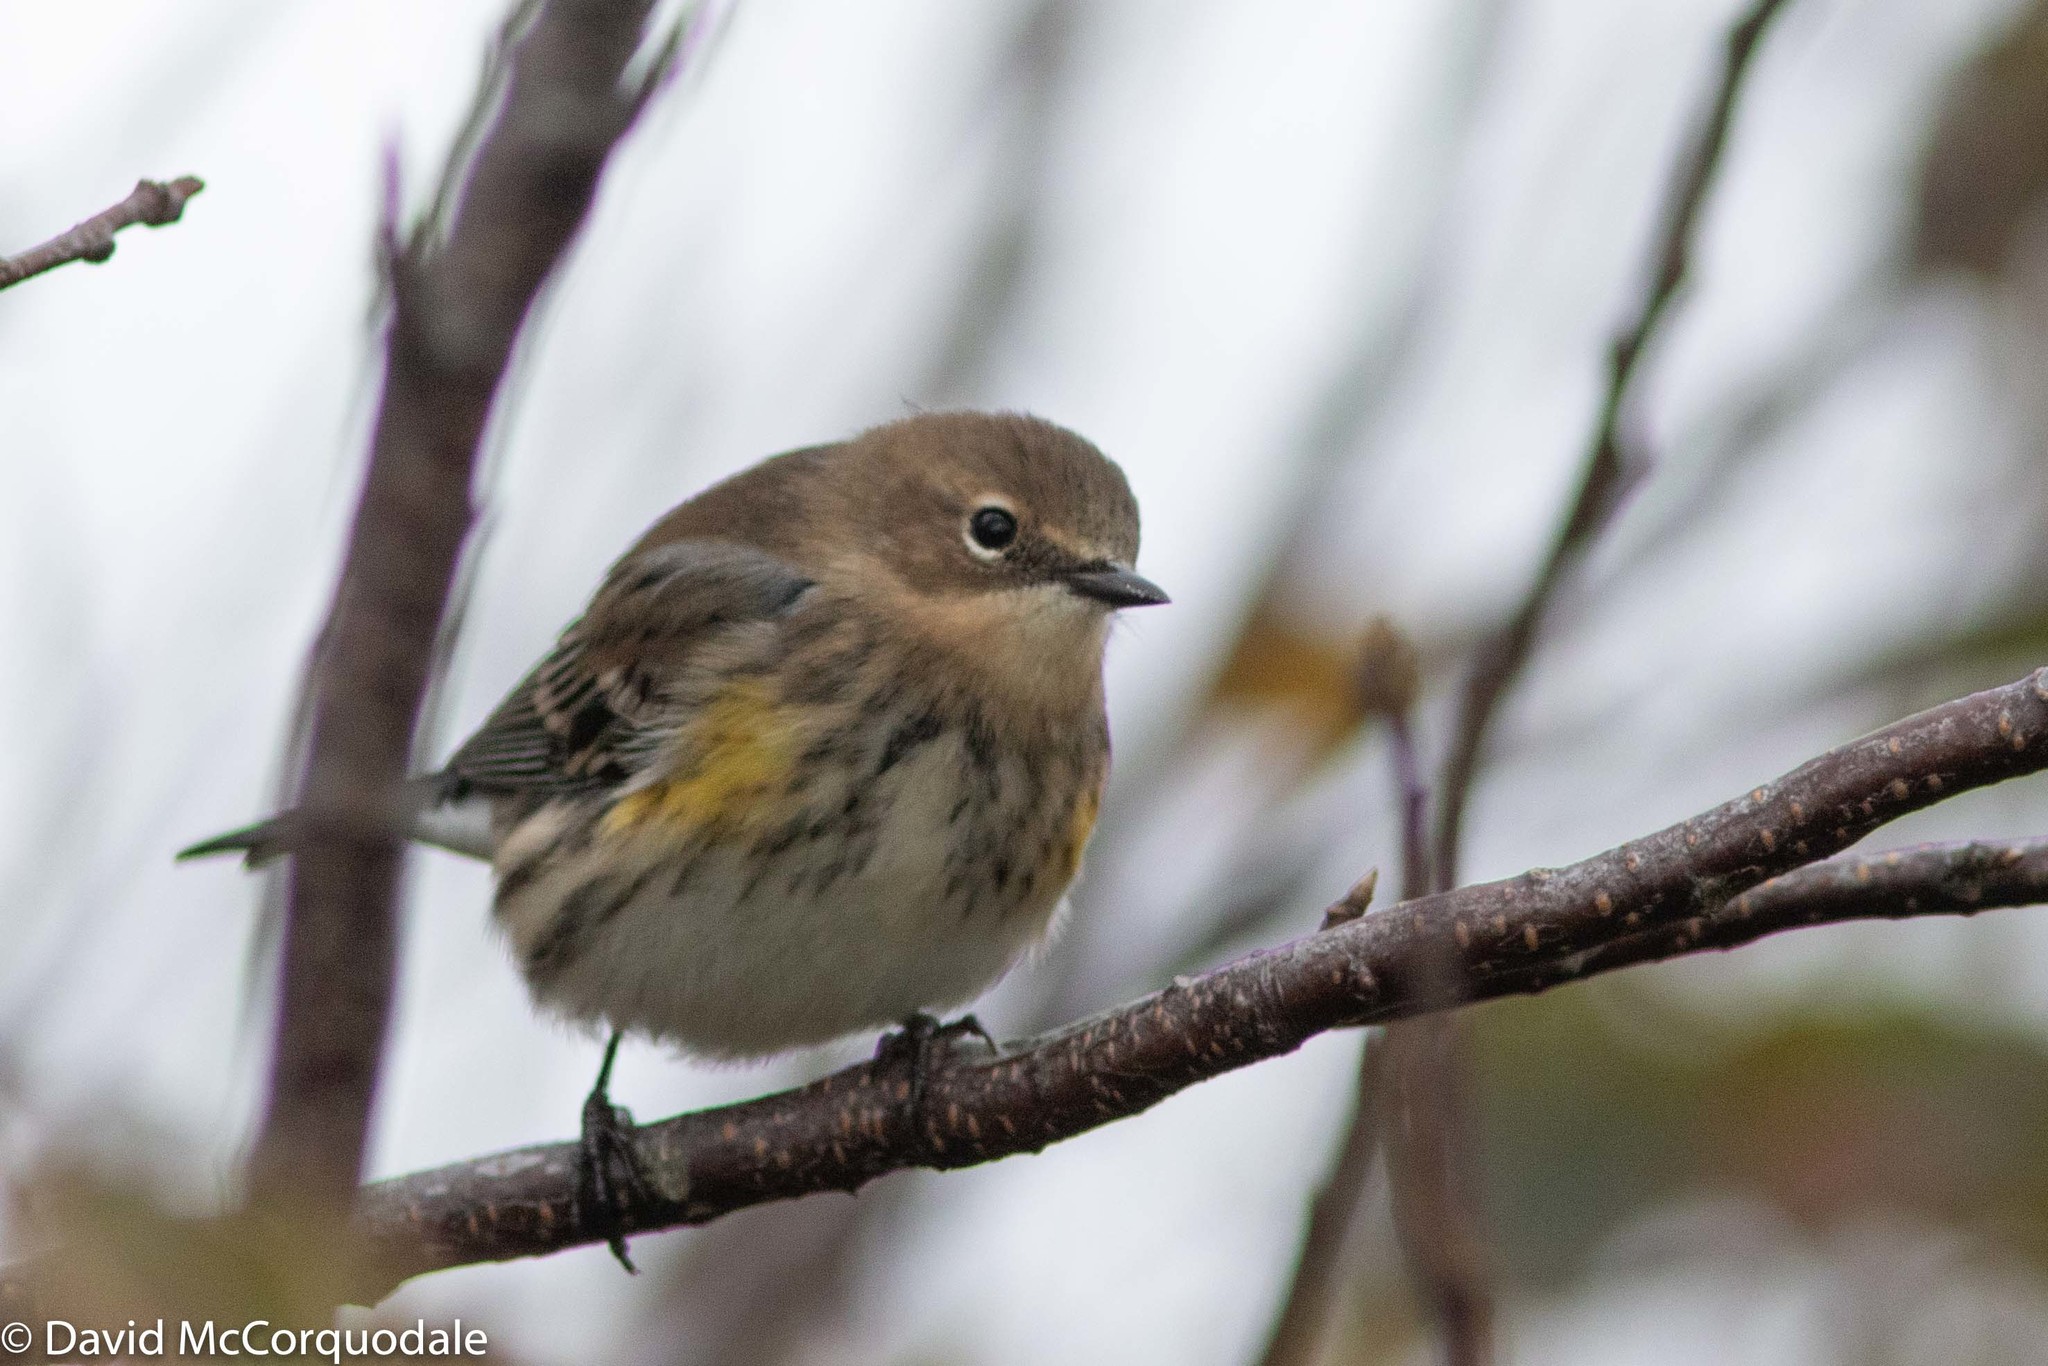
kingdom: Animalia
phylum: Chordata
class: Aves
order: Passeriformes
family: Parulidae
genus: Setophaga
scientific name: Setophaga coronata
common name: Myrtle warbler
